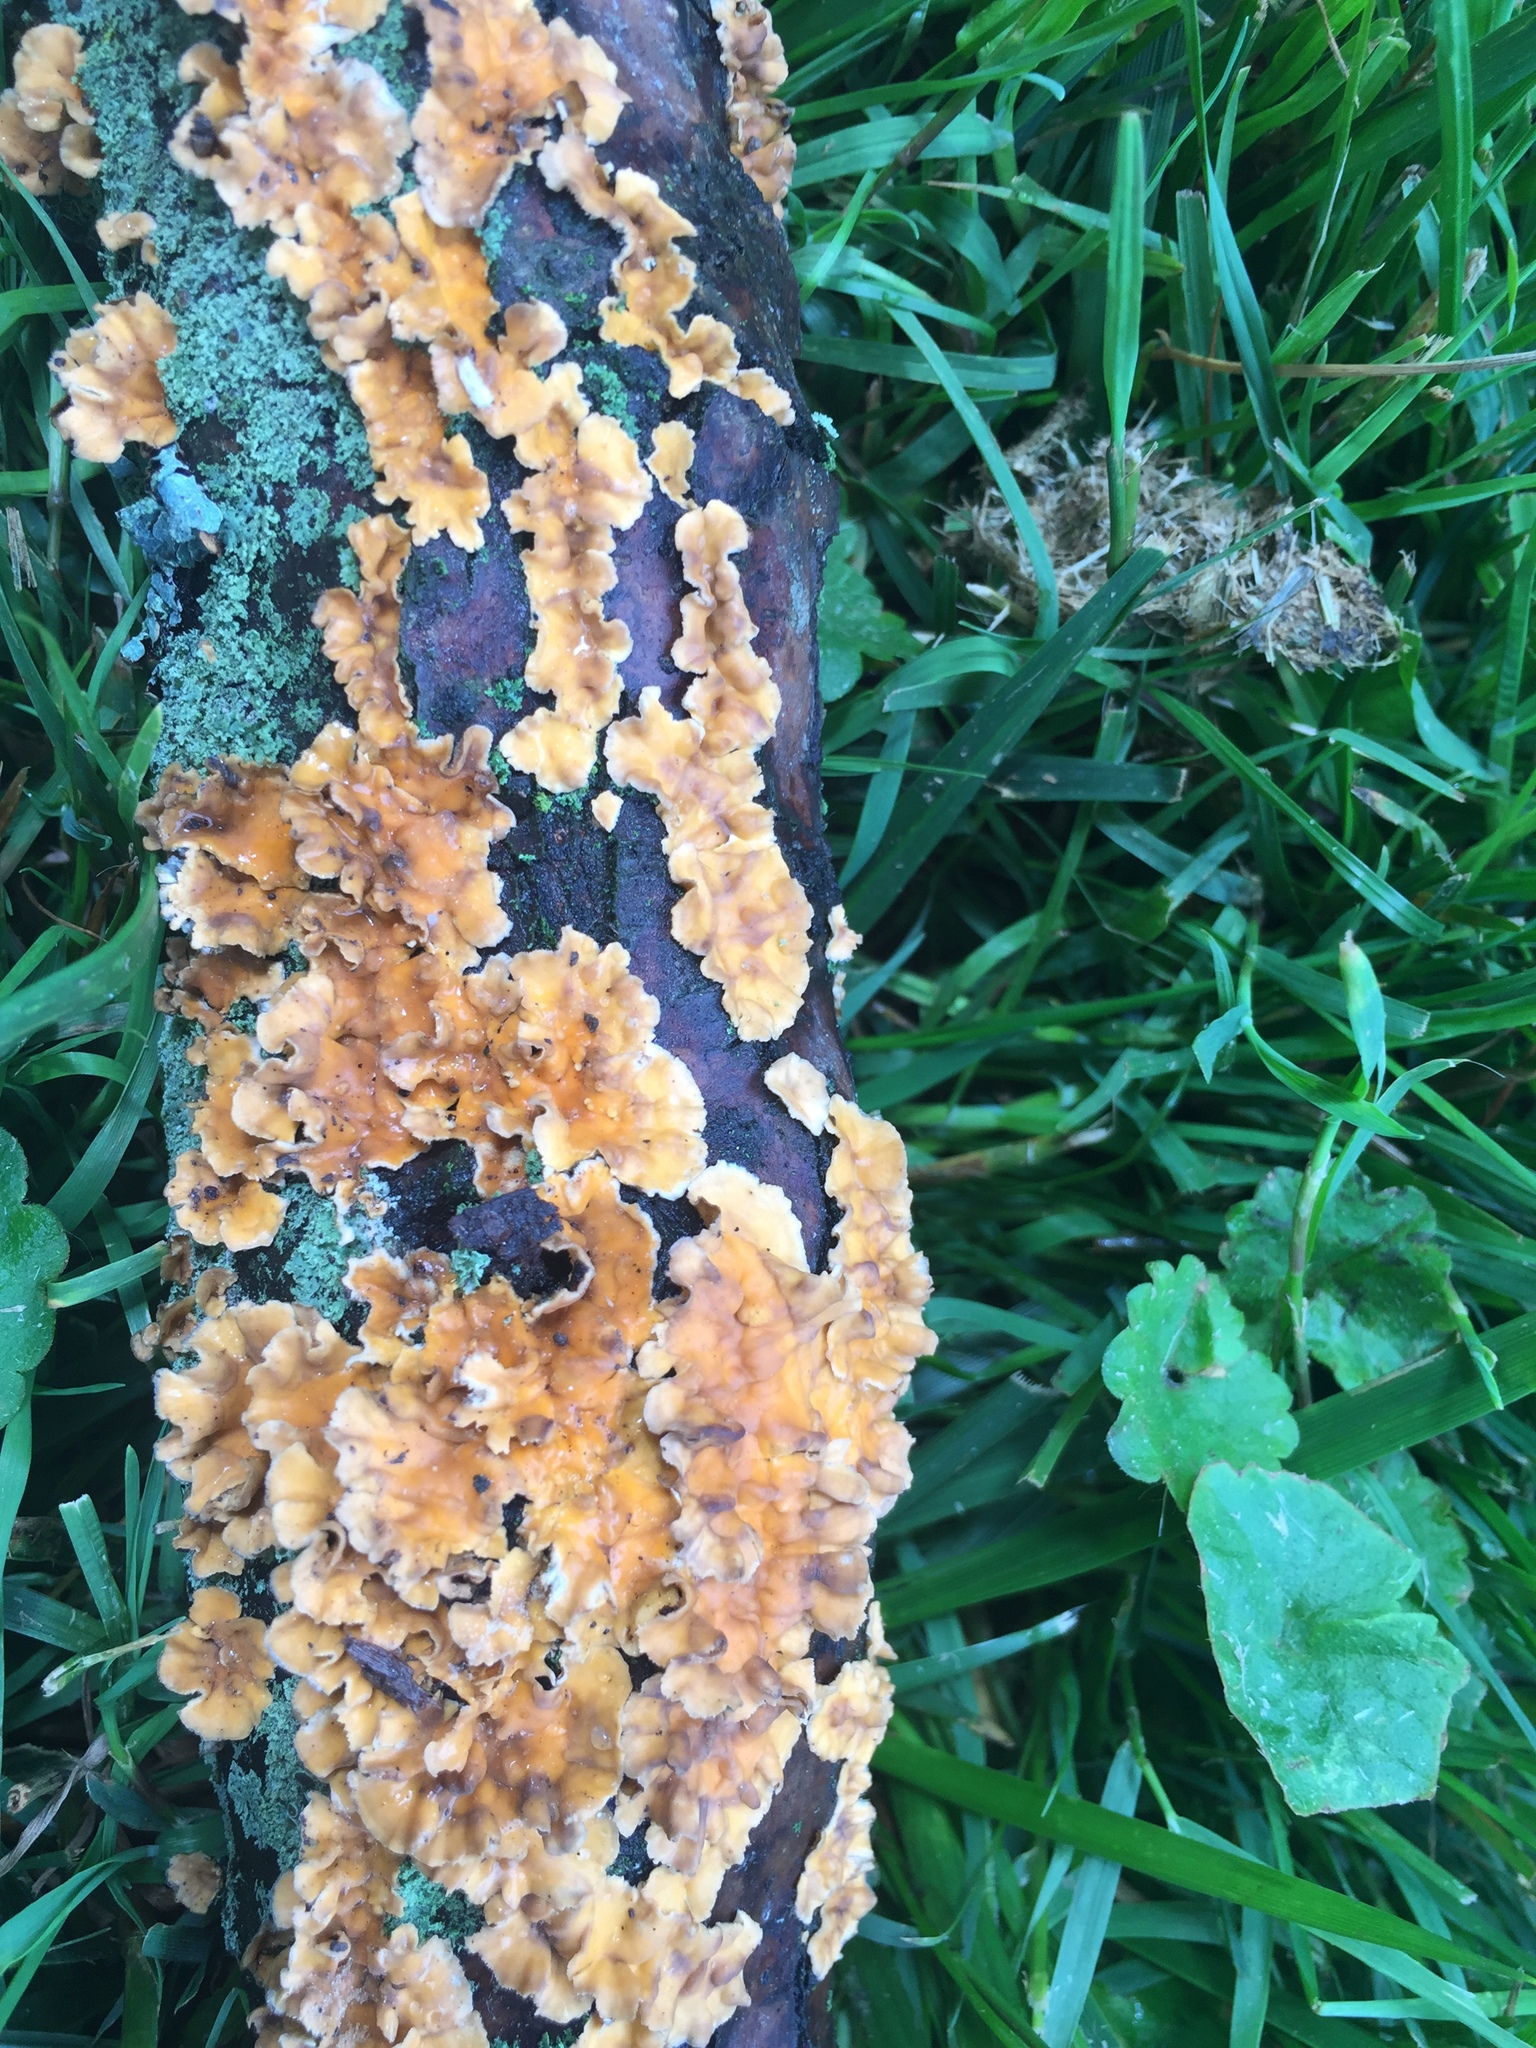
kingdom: Fungi
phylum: Basidiomycota
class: Agaricomycetes
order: Russulales
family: Stereaceae
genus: Stereum
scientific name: Stereum complicatum
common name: Crowded parchment
